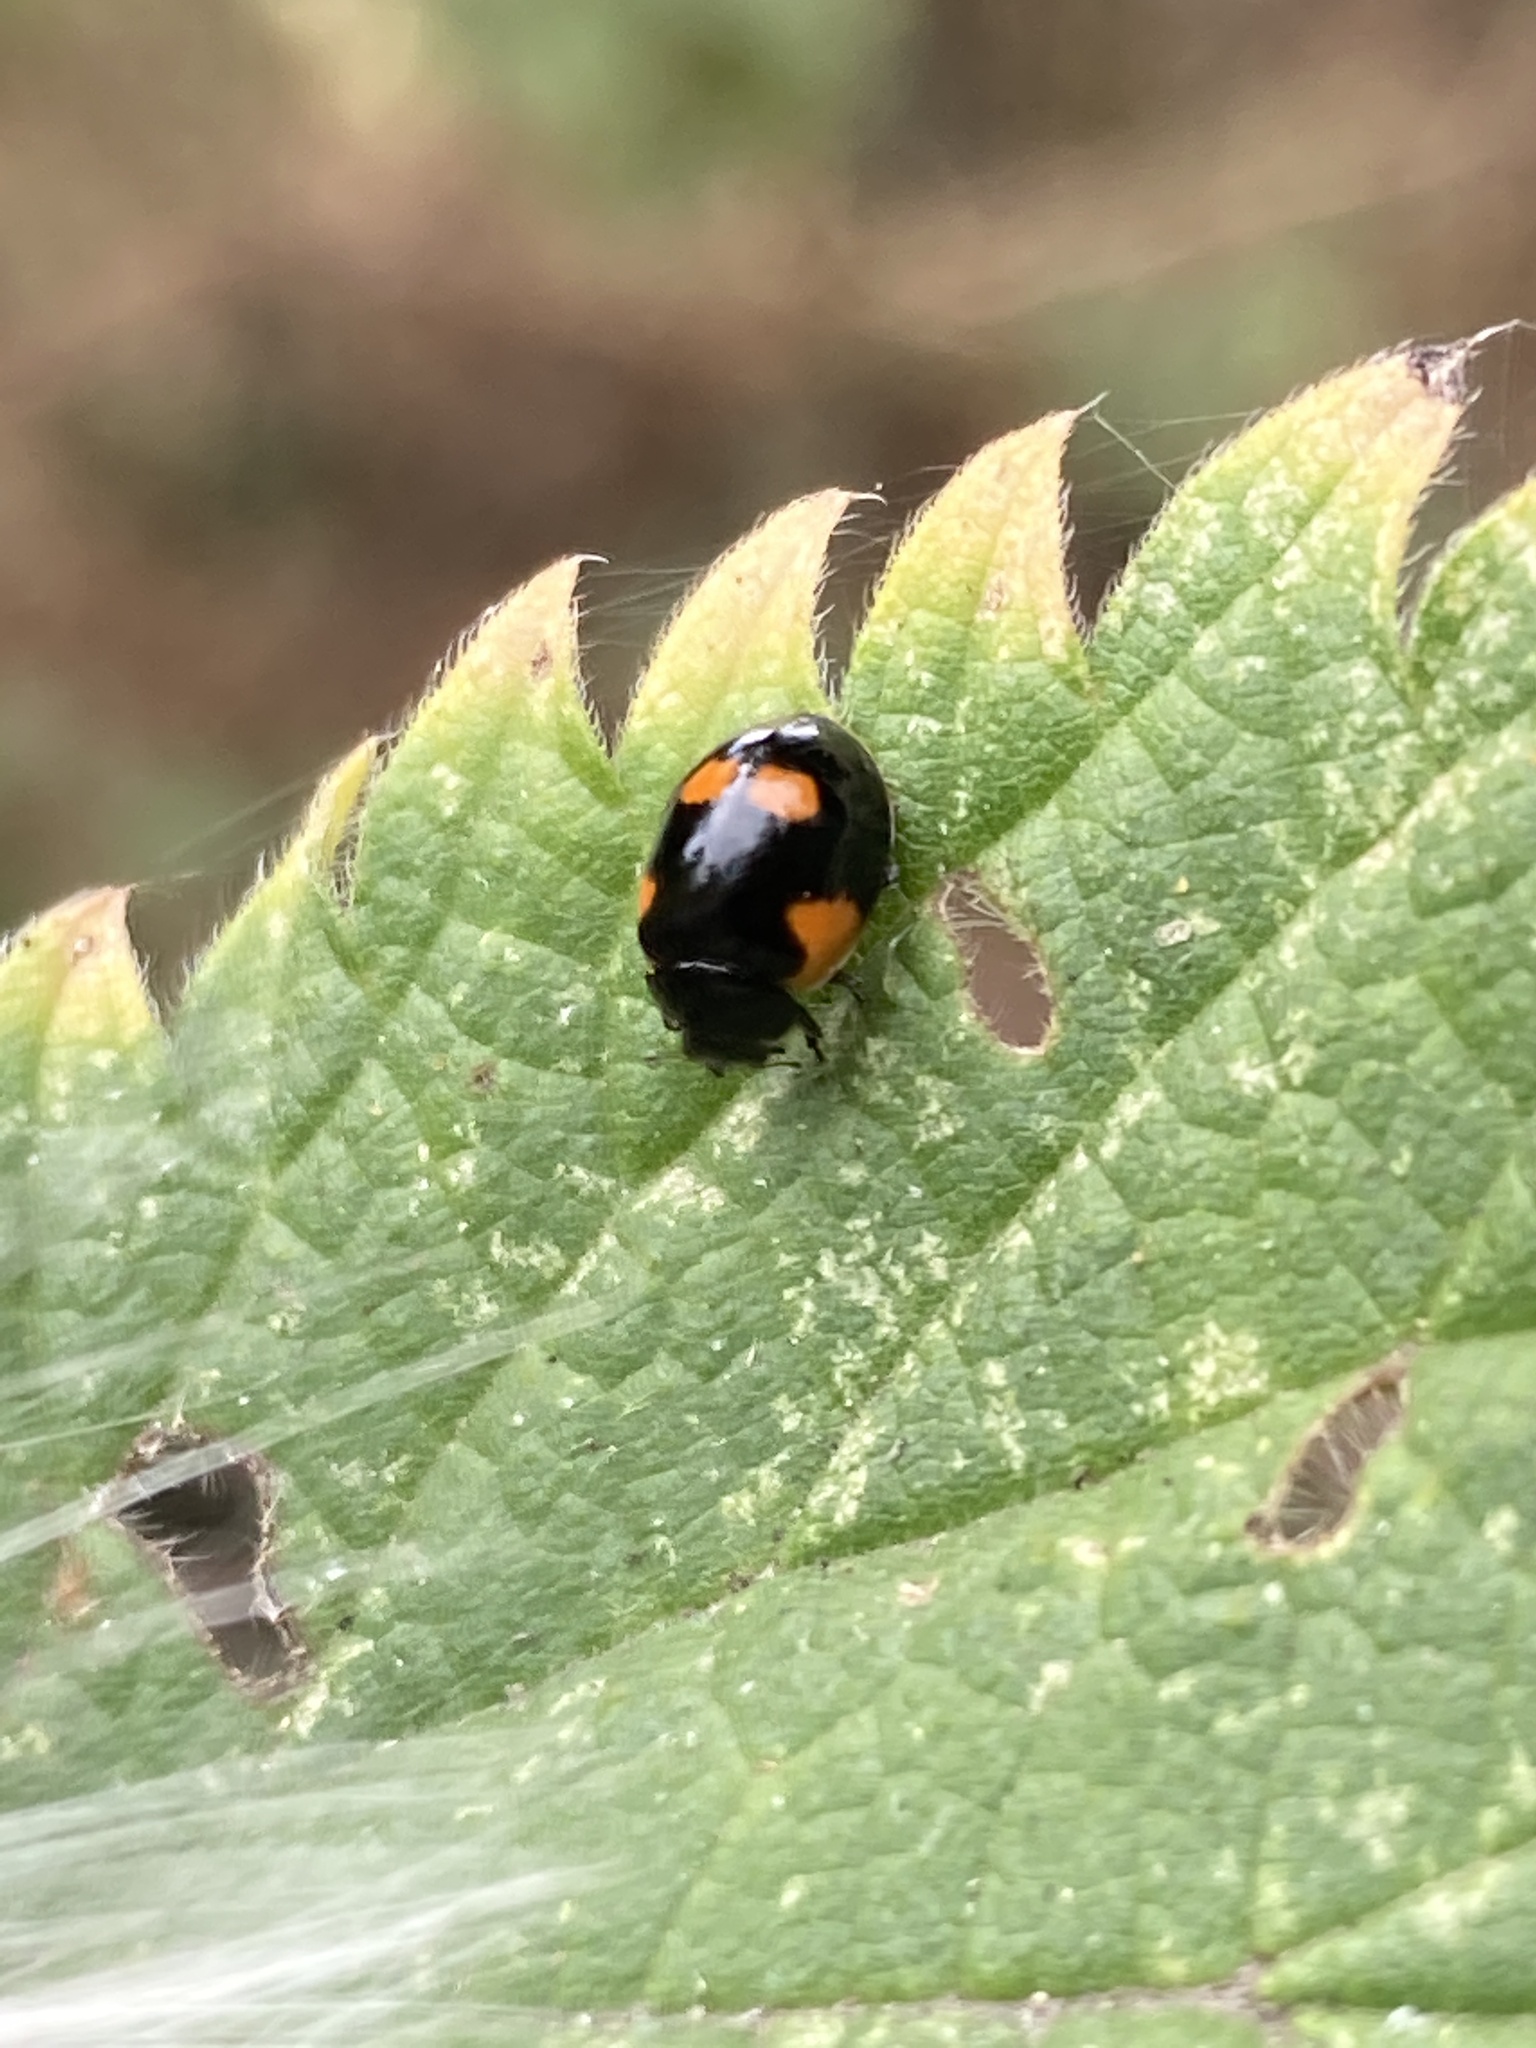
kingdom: Animalia
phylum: Arthropoda
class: Insecta
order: Coleoptera
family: Coccinellidae
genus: Adalia
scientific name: Adalia bipunctata
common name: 2-spot ladybird
